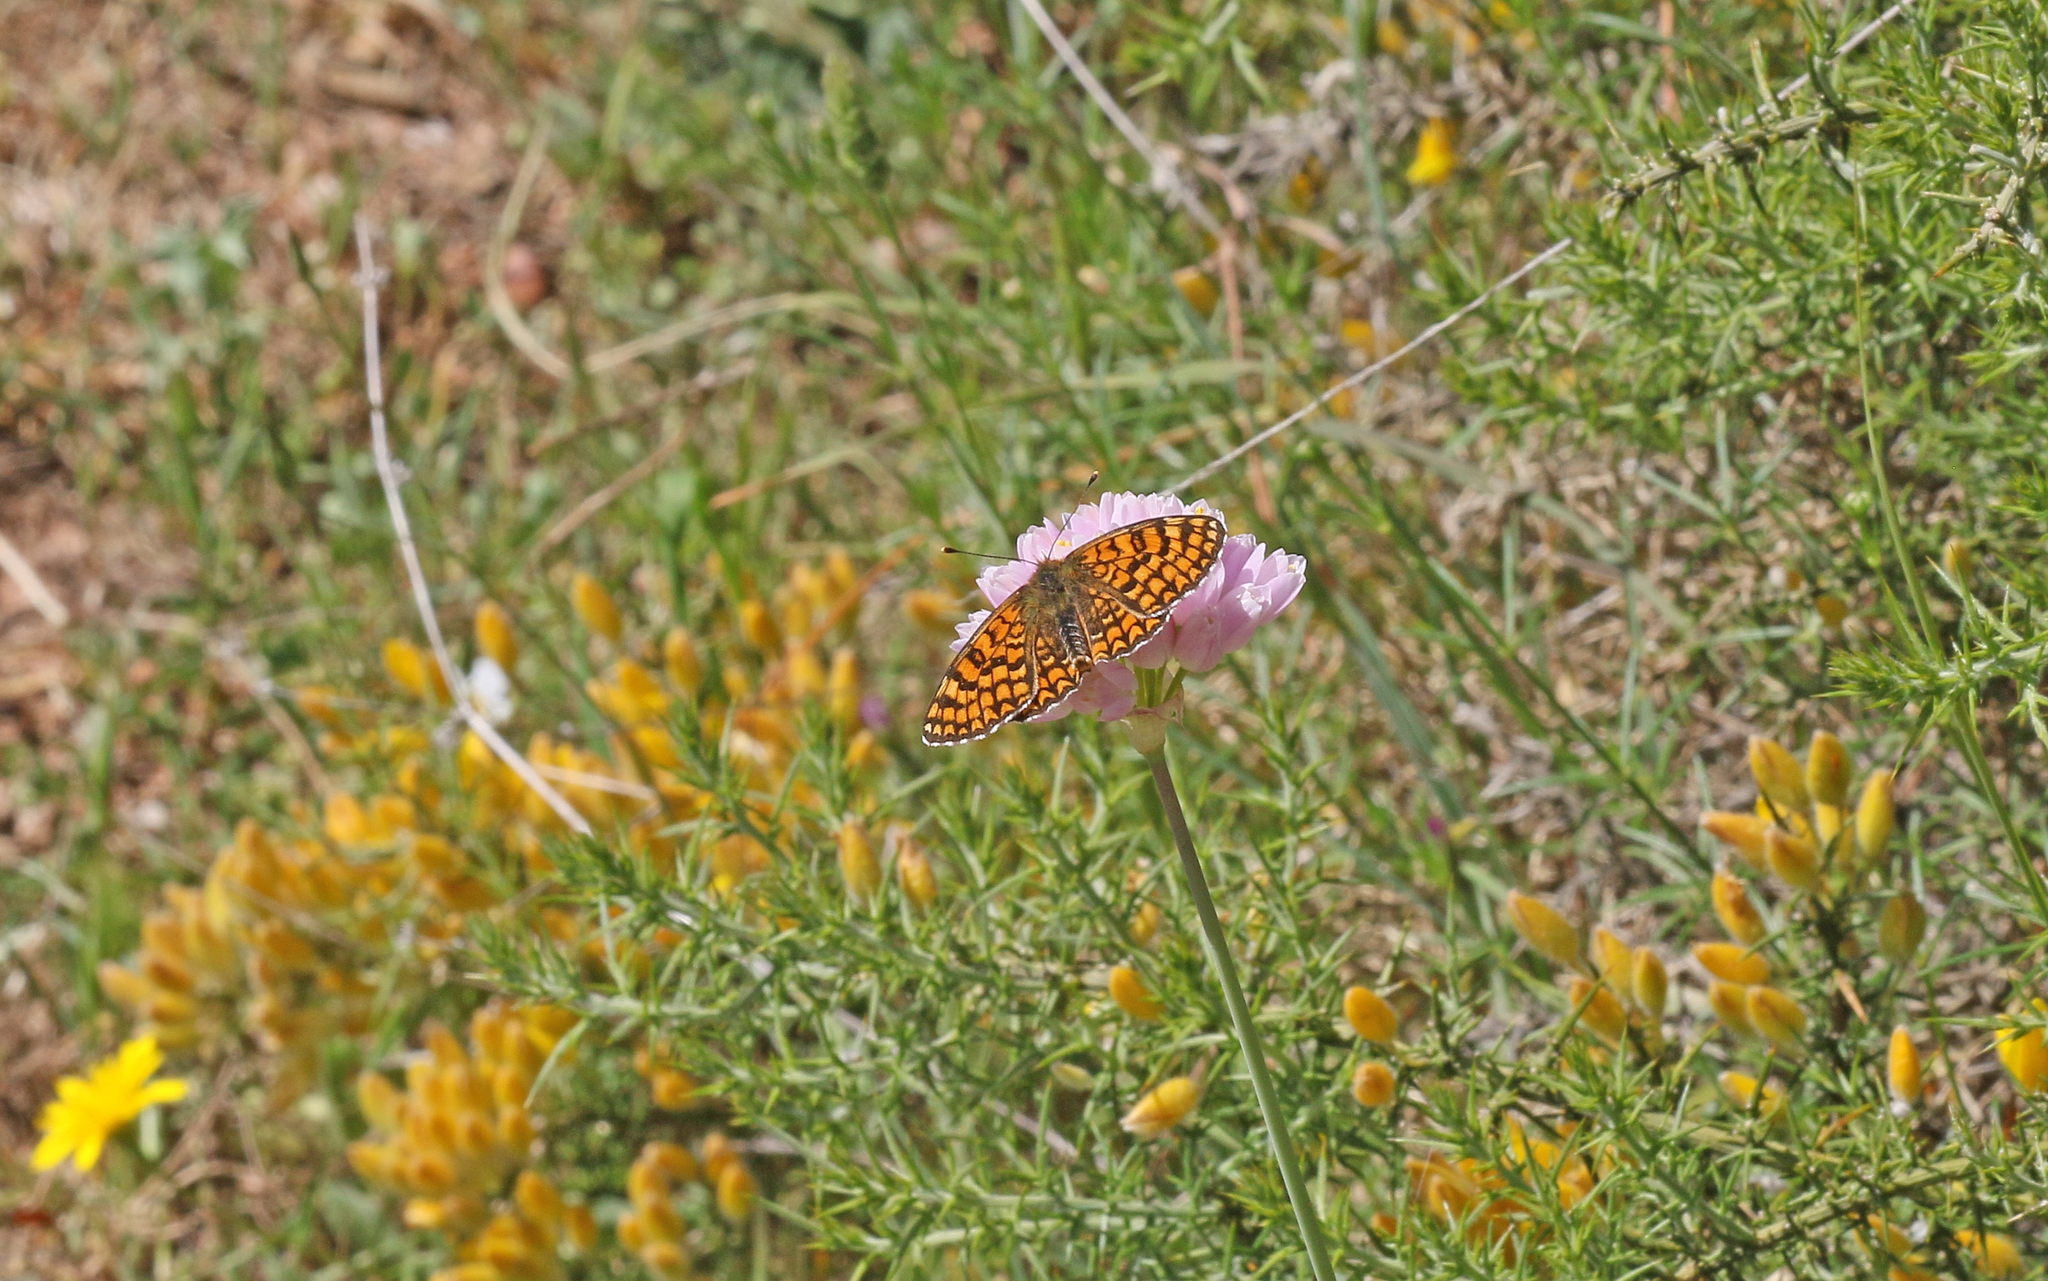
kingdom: Animalia
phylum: Arthropoda
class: Insecta
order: Lepidoptera
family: Nymphalidae
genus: Melitaea
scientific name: Melitaea deione
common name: Provençal fritillary
